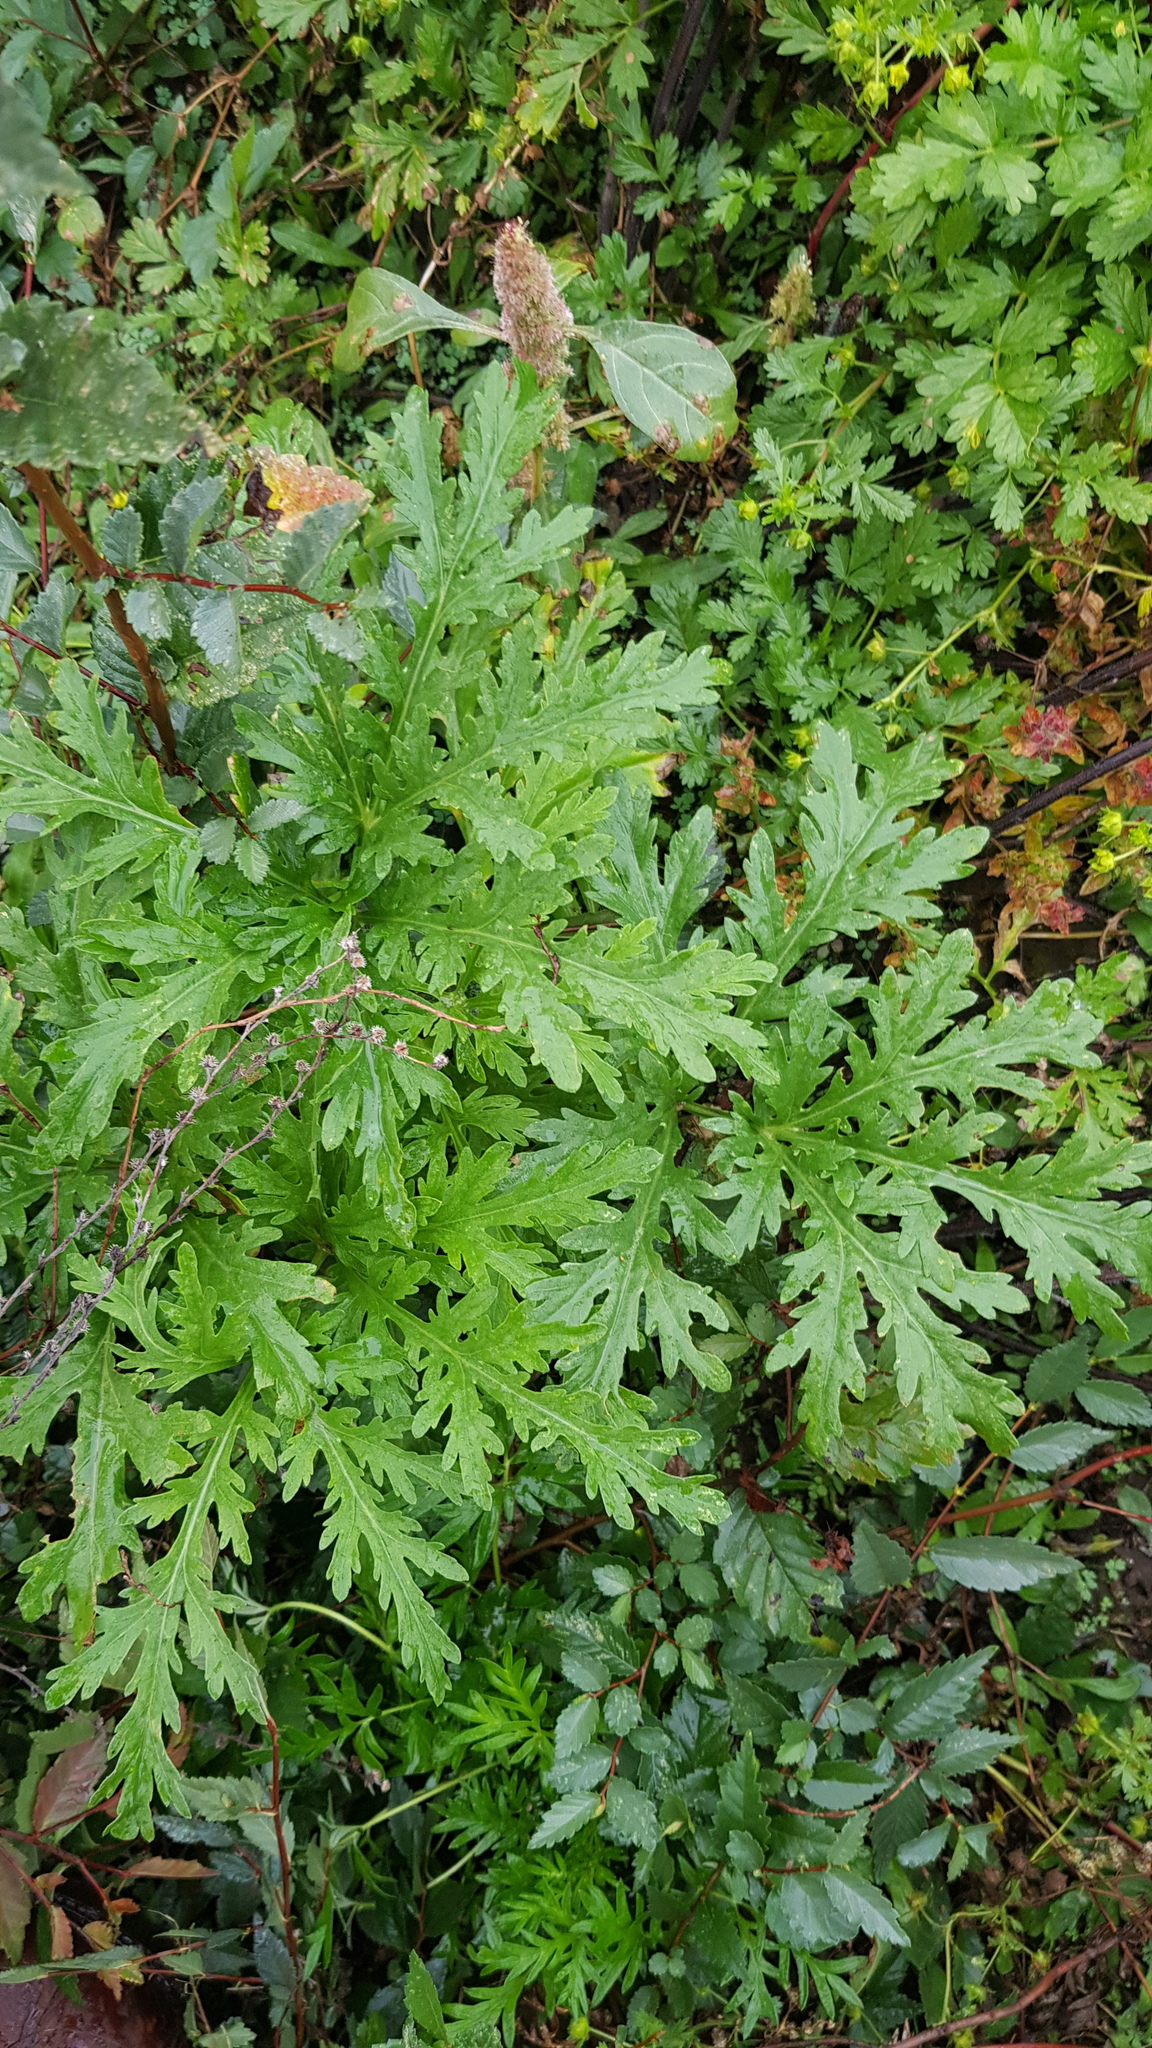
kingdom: Plantae
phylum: Tracheophyta
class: Magnoliopsida
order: Rosales
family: Urticaceae
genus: Urtica
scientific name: Urtica cannabina
